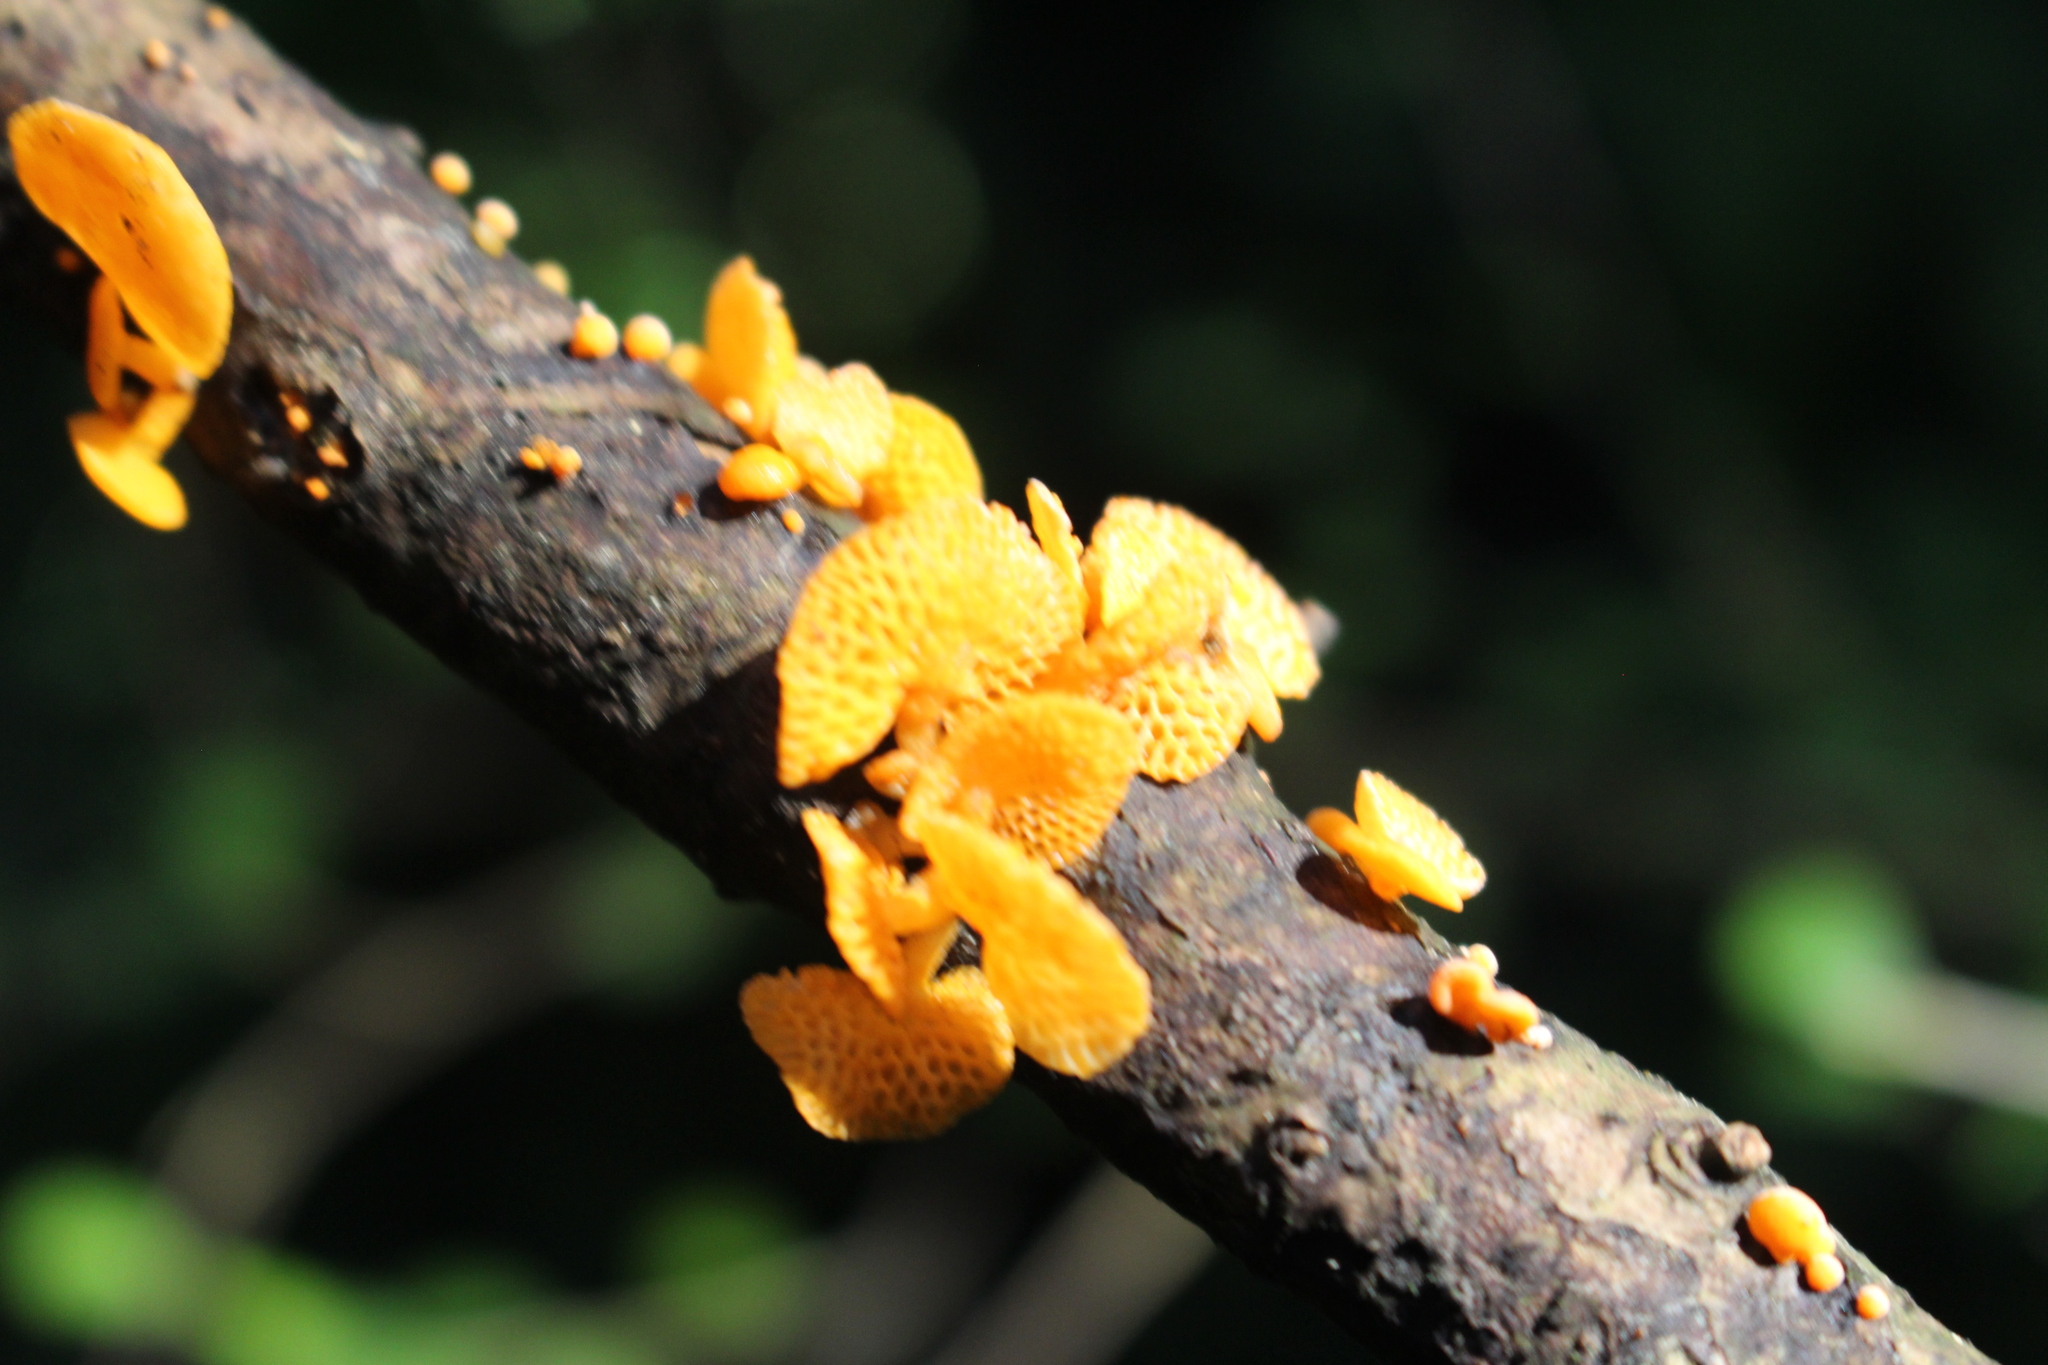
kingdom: Fungi
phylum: Basidiomycota
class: Agaricomycetes
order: Agaricales
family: Mycenaceae
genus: Favolaschia
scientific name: Favolaschia claudopus
